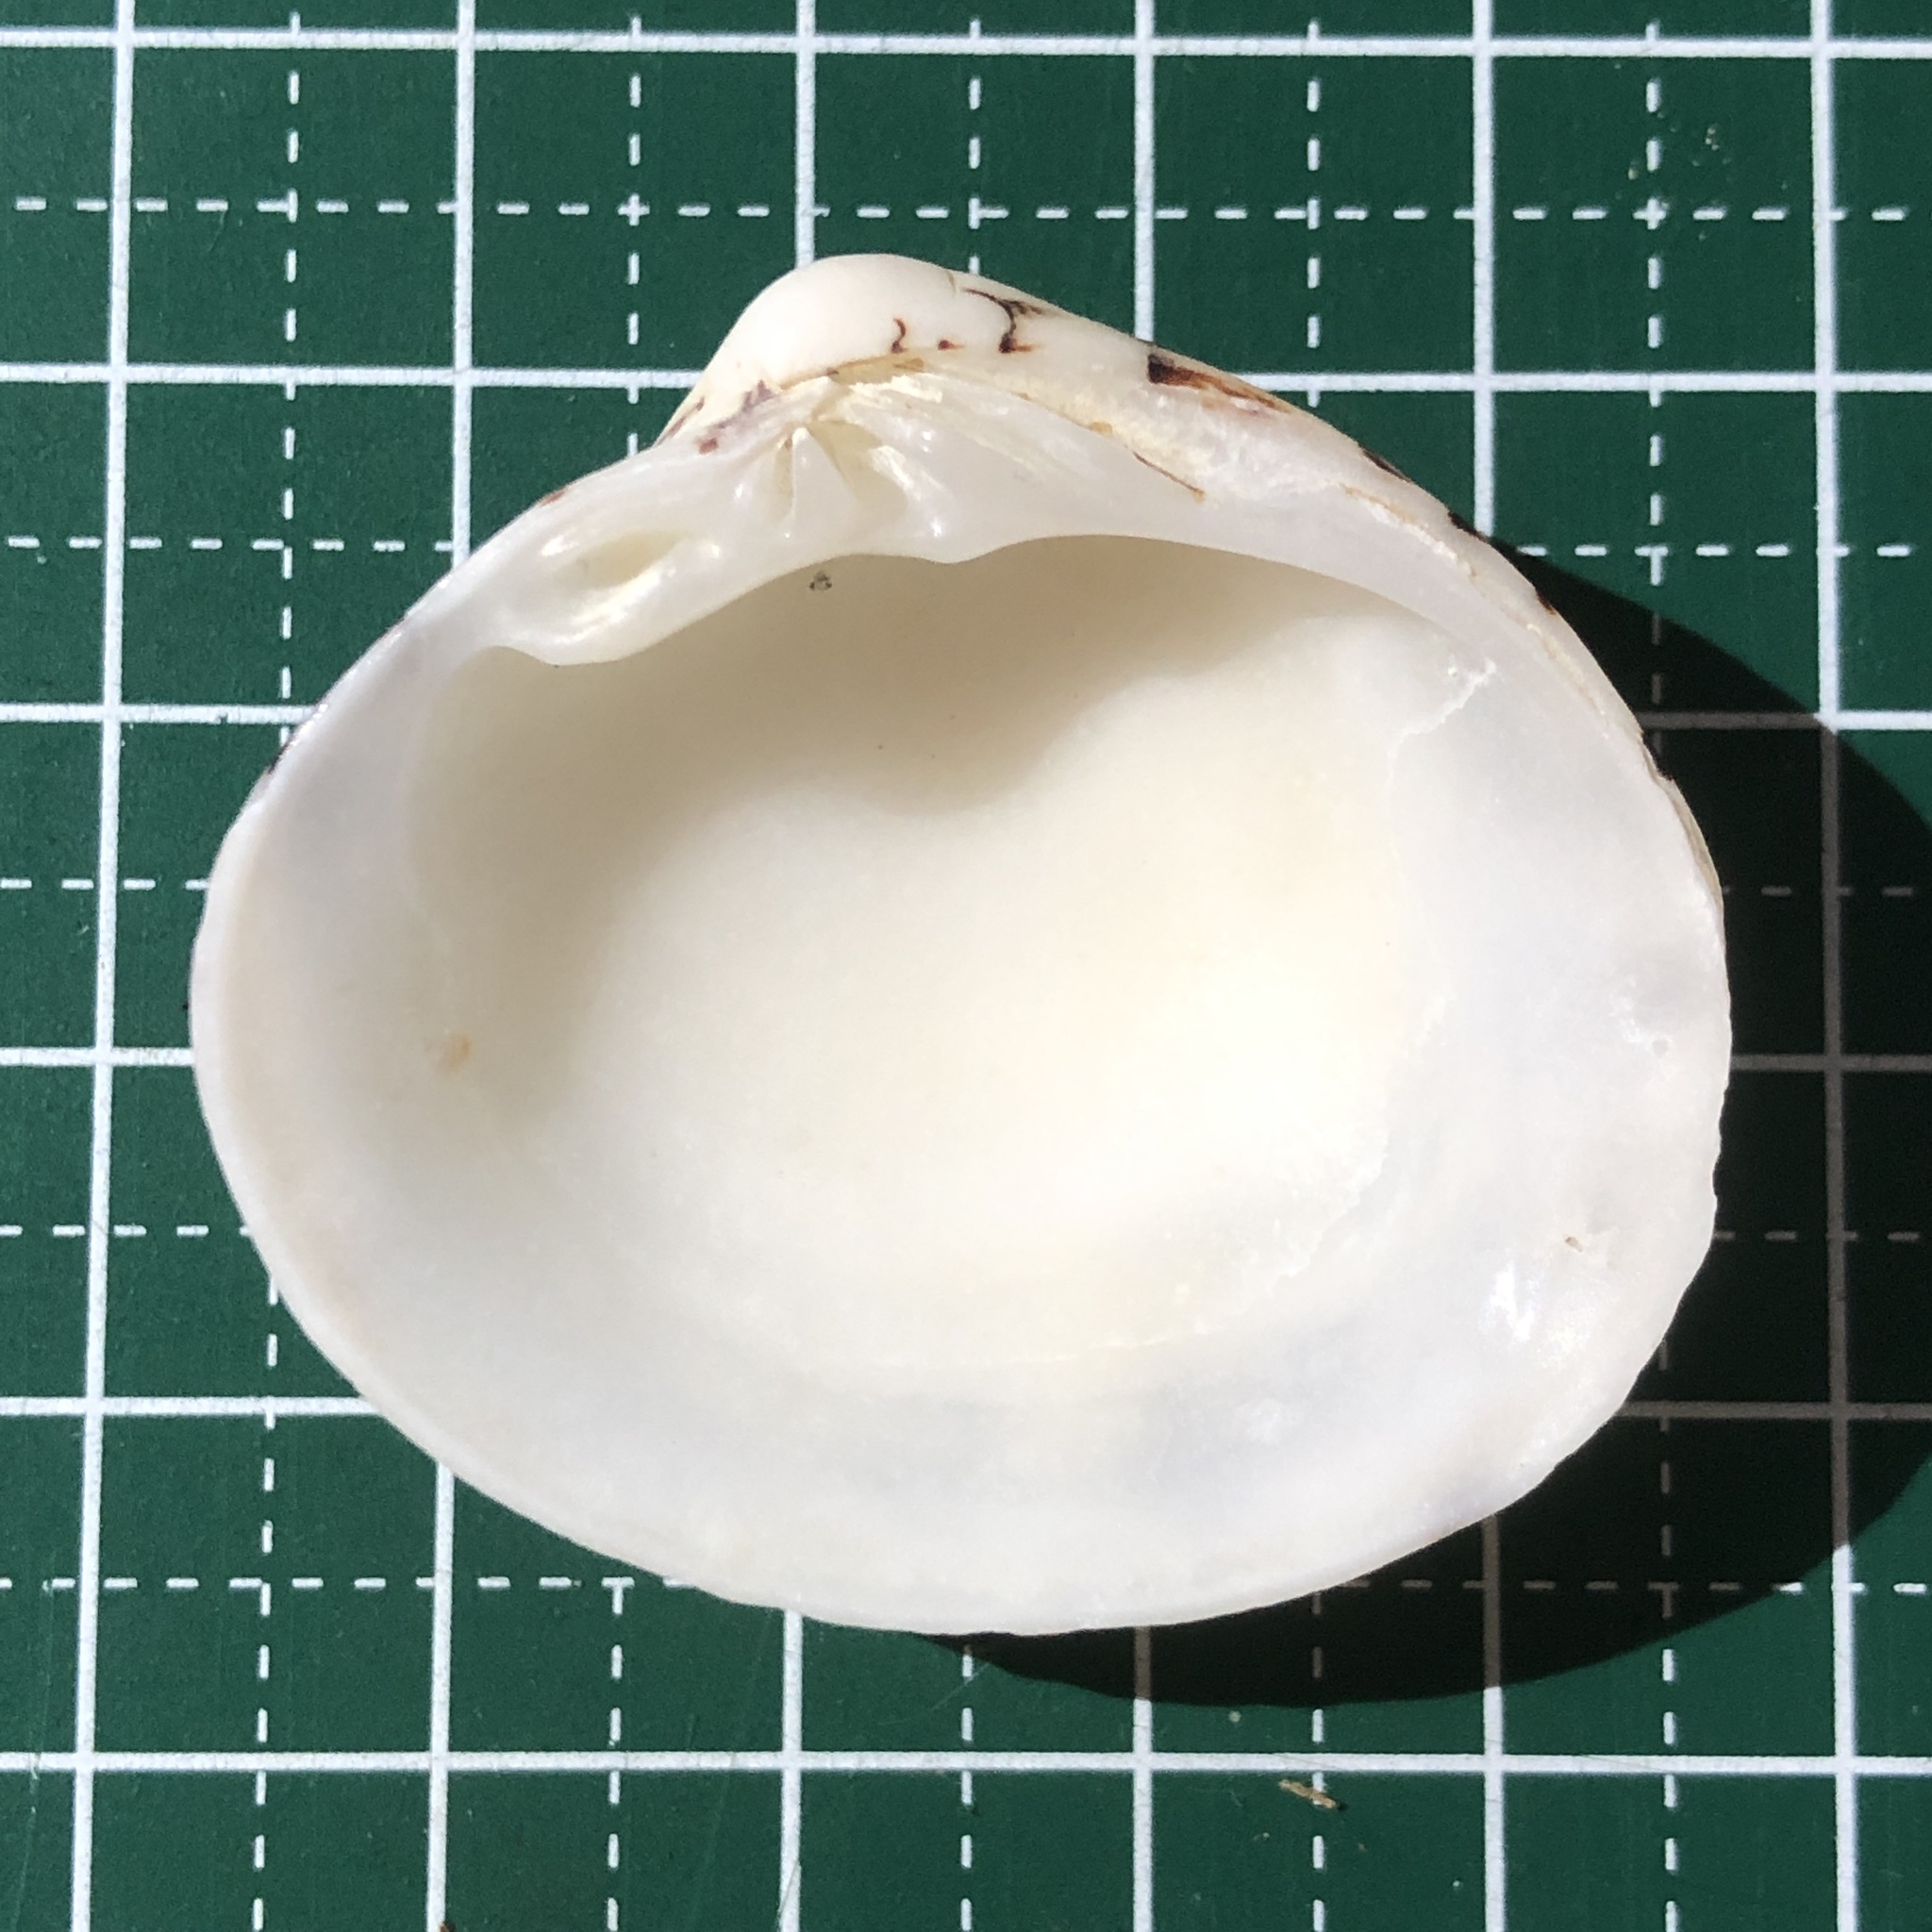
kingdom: Animalia
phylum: Mollusca
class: Bivalvia
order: Venerida
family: Veneridae
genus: Lioconcha
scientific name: Lioconcha castrensis
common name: Camp pitar-venus
